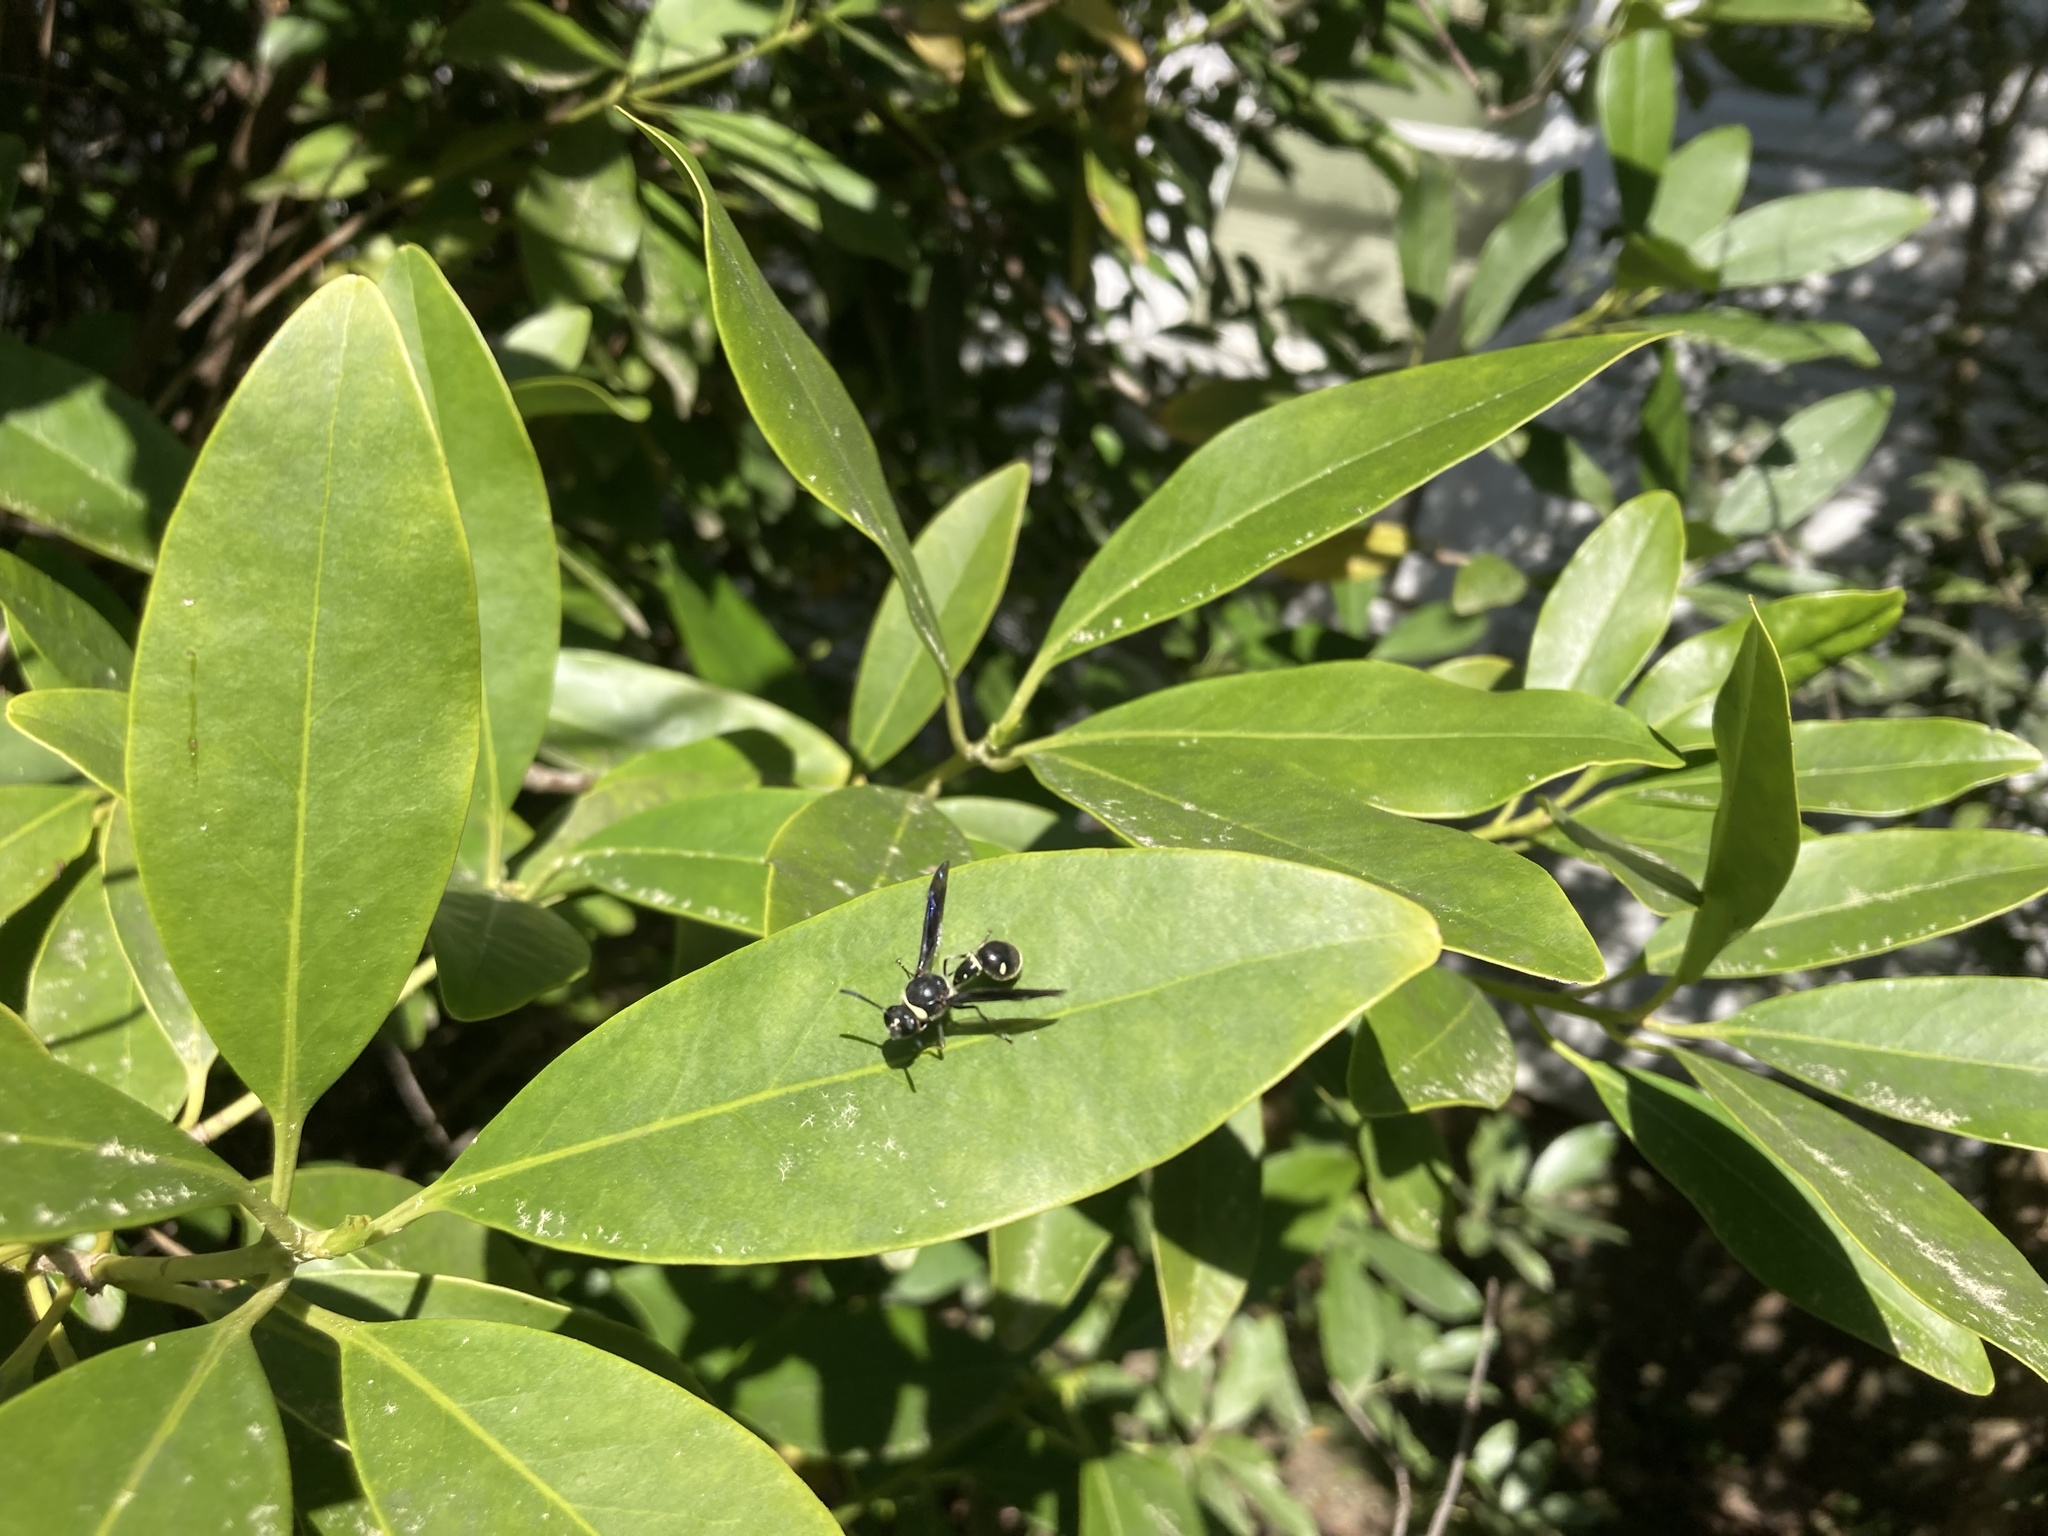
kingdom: Animalia
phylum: Arthropoda
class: Insecta
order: Hymenoptera
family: Vespidae
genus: Eumenes
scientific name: Eumenes fraternus
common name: Fraternal potter wasp
